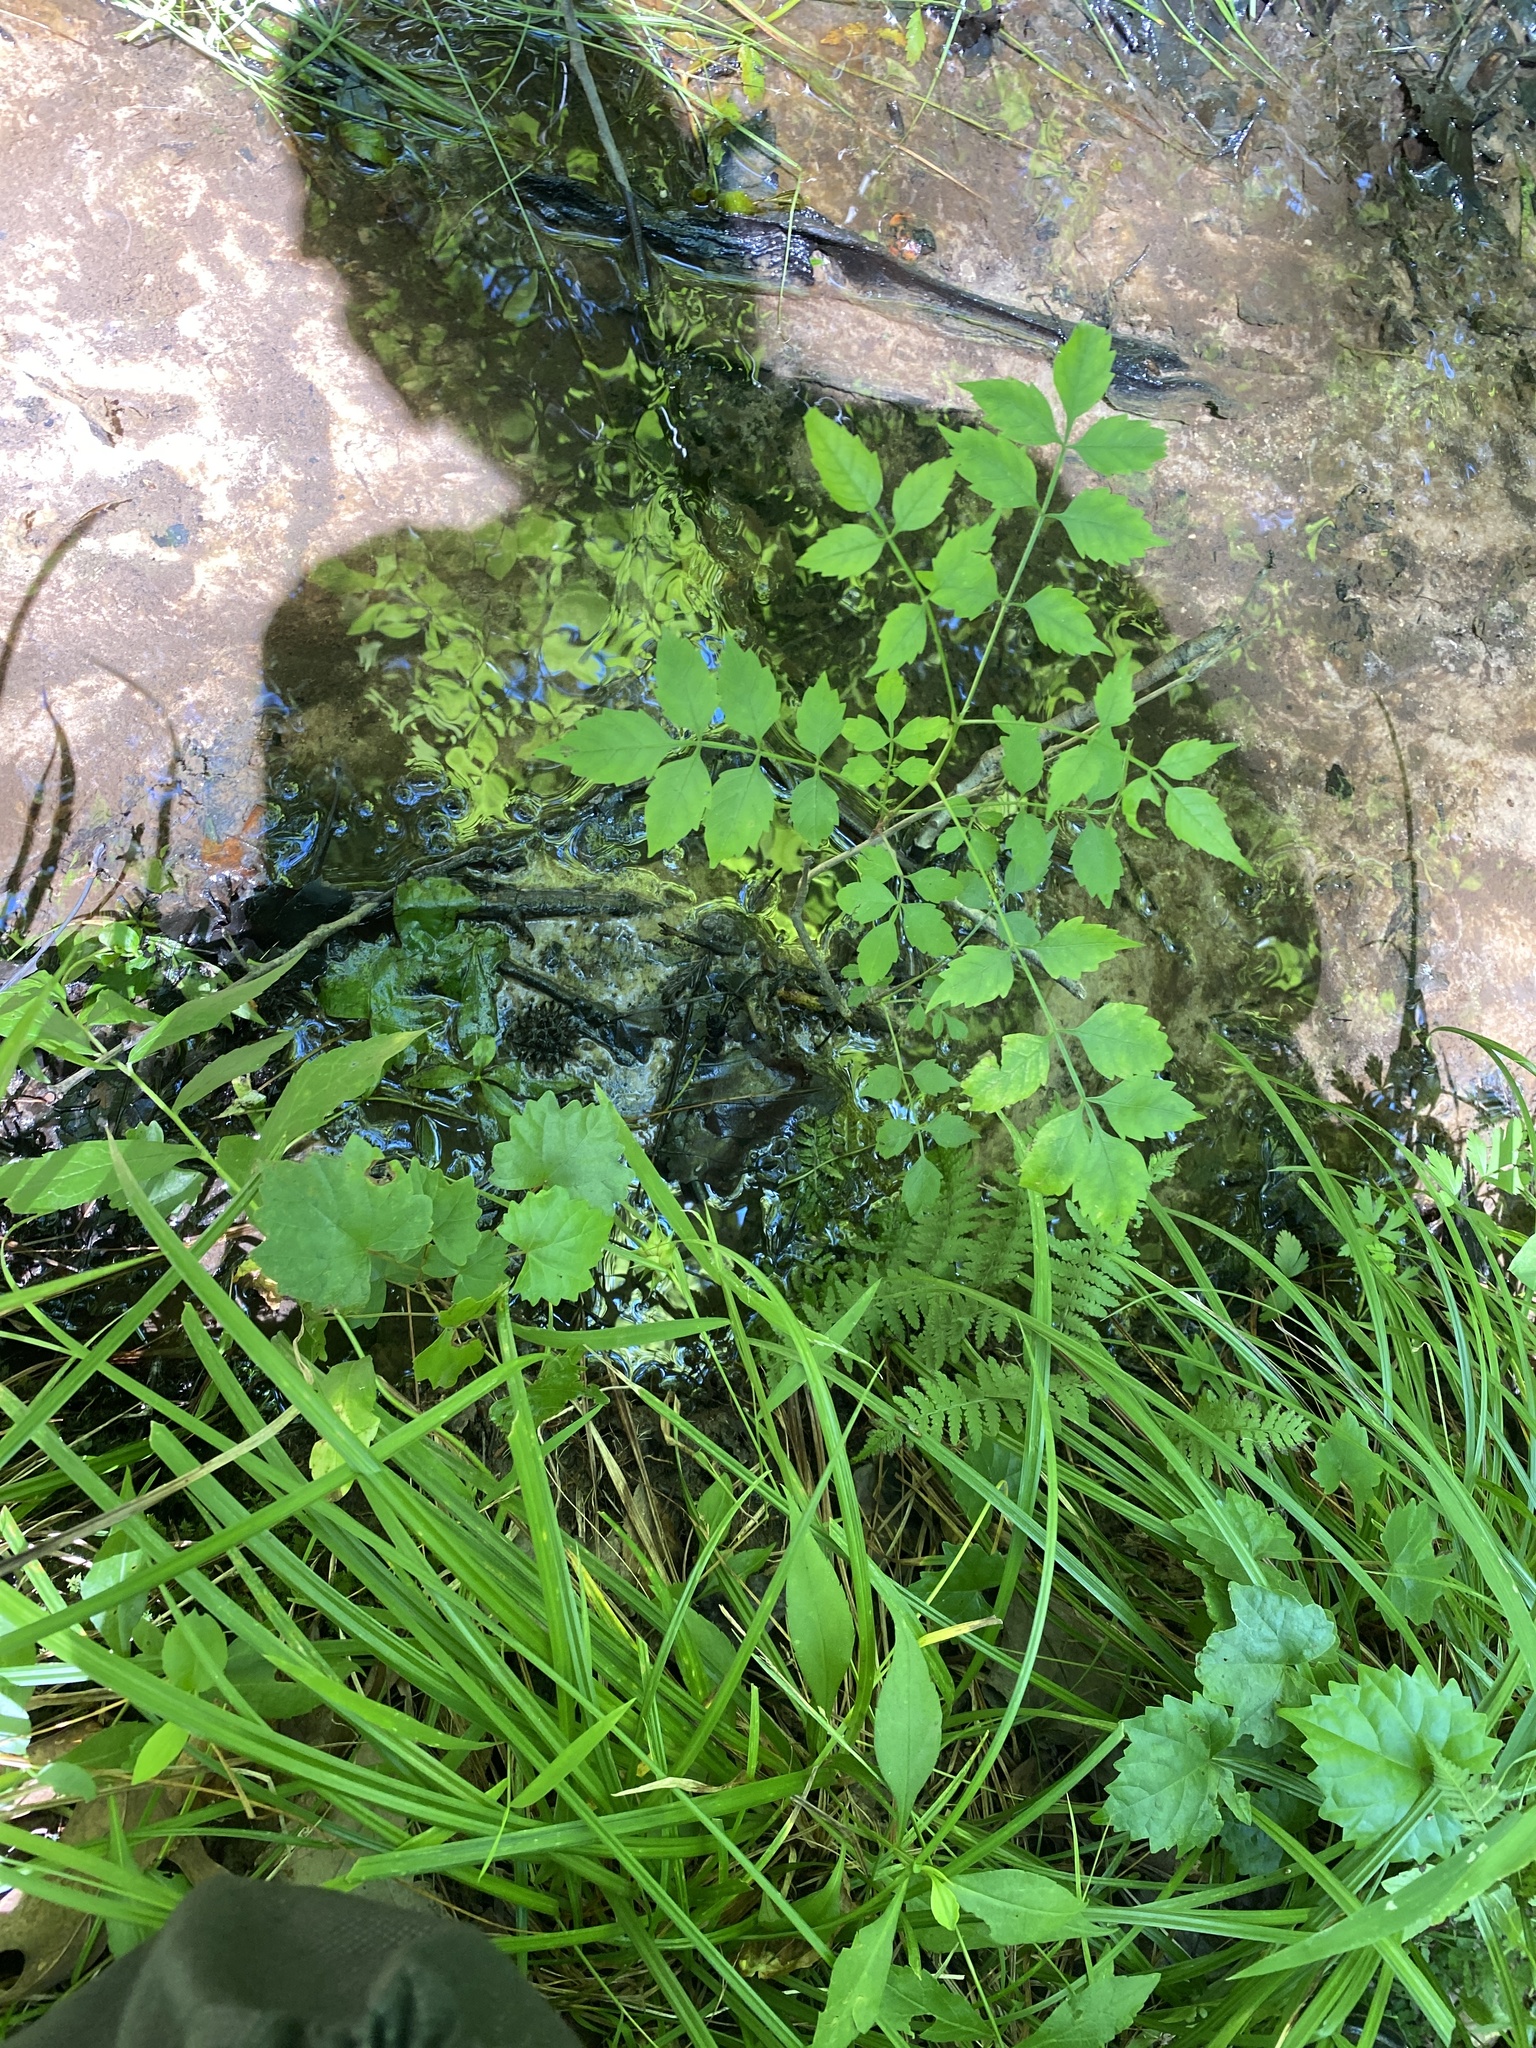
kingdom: Plantae
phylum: Tracheophyta
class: Magnoliopsida
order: Lamiales
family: Bignoniaceae
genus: Campsis
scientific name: Campsis radicans
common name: Trumpet-creeper
